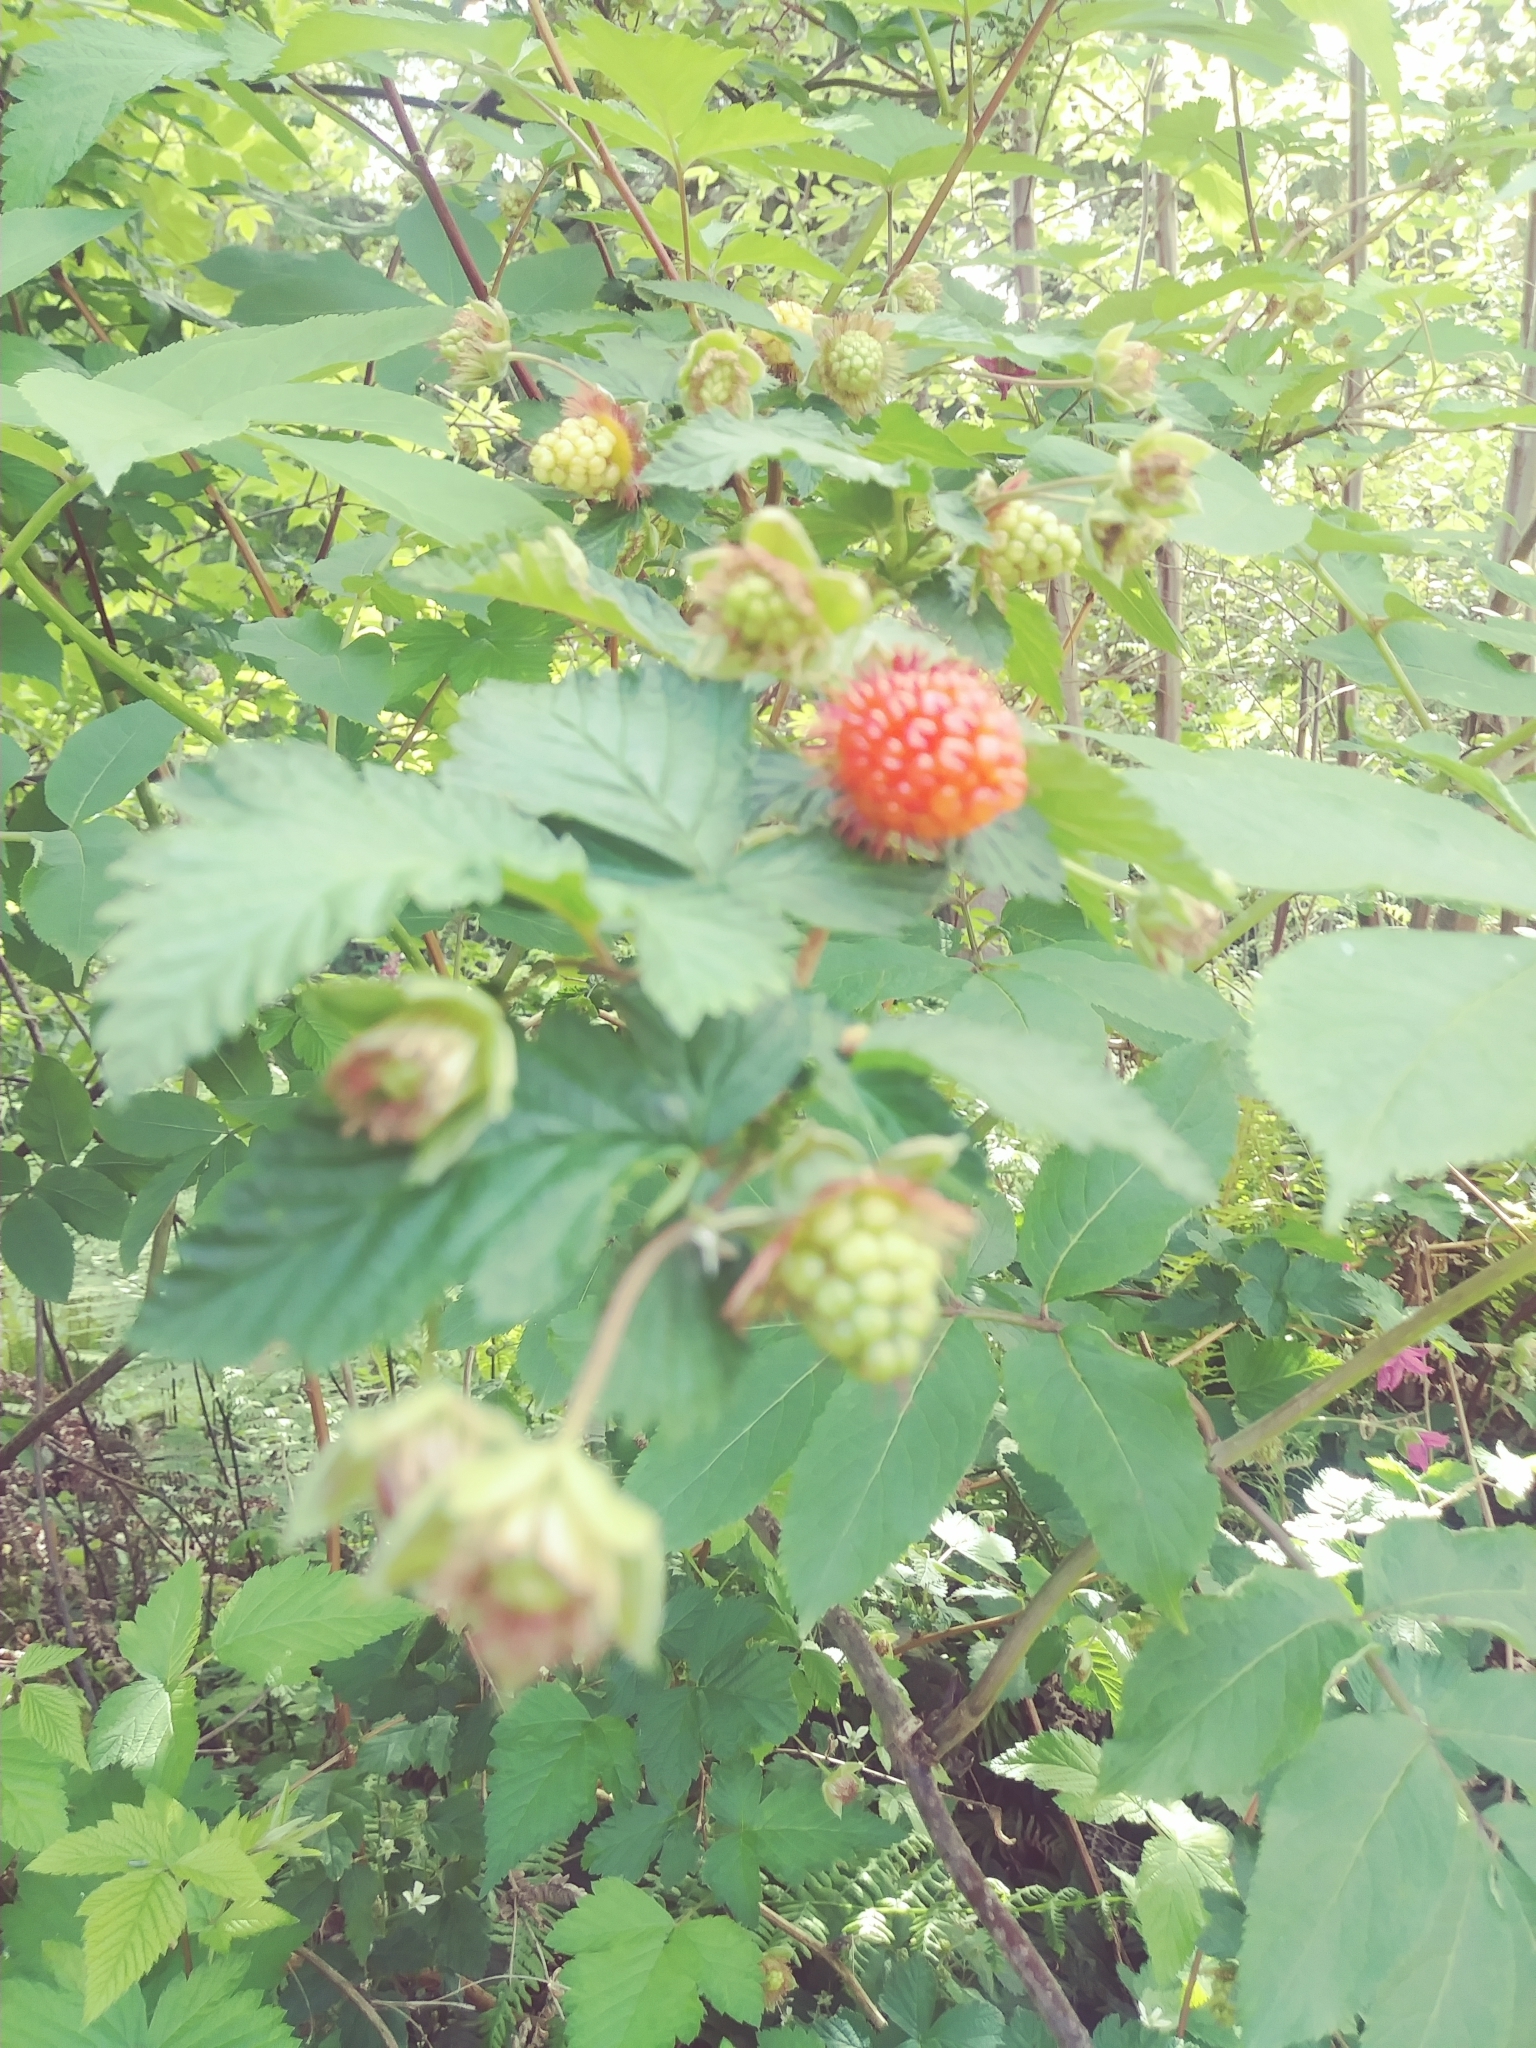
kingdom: Plantae
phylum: Tracheophyta
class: Magnoliopsida
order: Rosales
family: Rosaceae
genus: Rubus
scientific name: Rubus spectabilis
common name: Salmonberry
